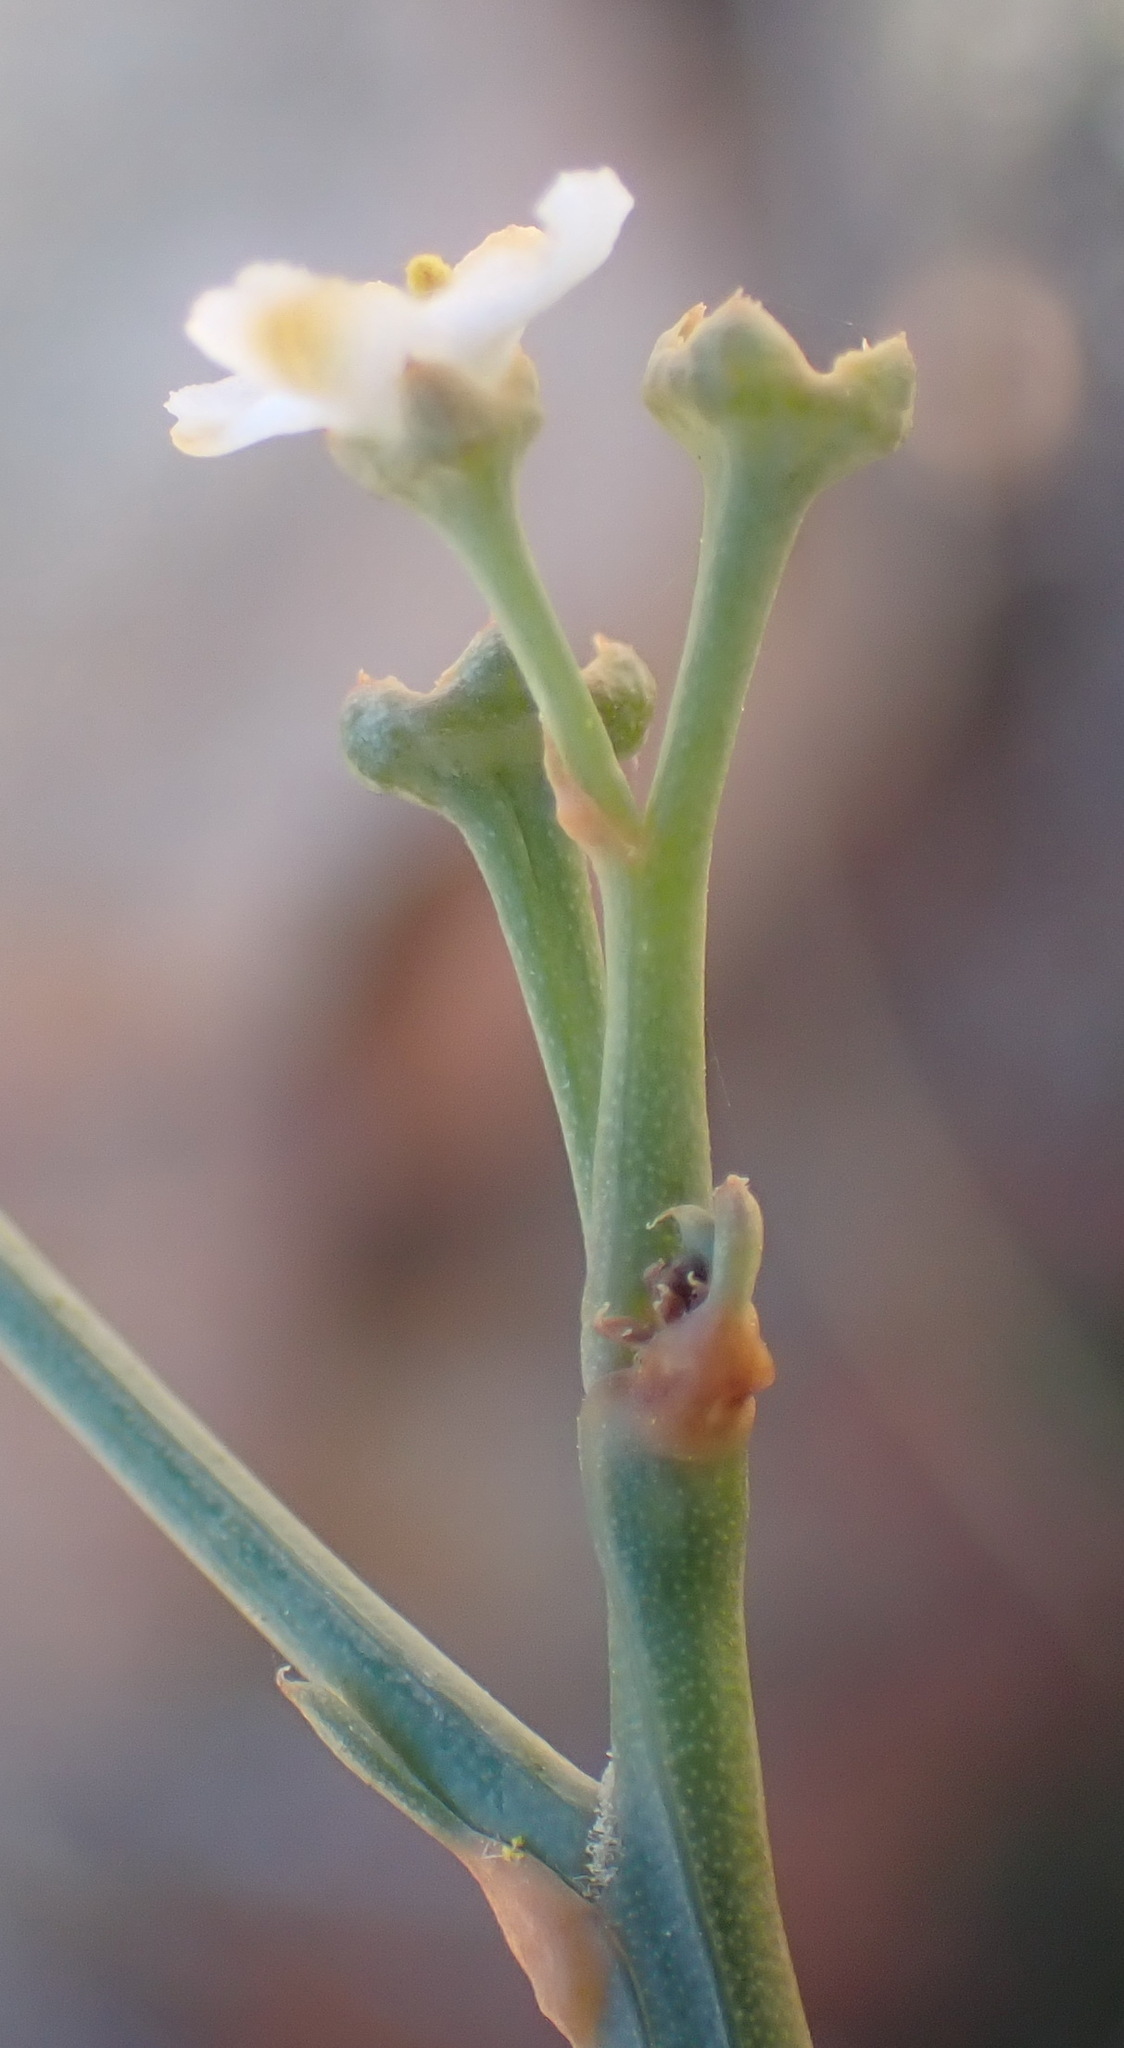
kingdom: Plantae
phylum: Tracheophyta
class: Magnoliopsida
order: Solanales
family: Montiniaceae
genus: Montinia
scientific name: Montinia caryophyllacea
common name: Wild clove-bush
